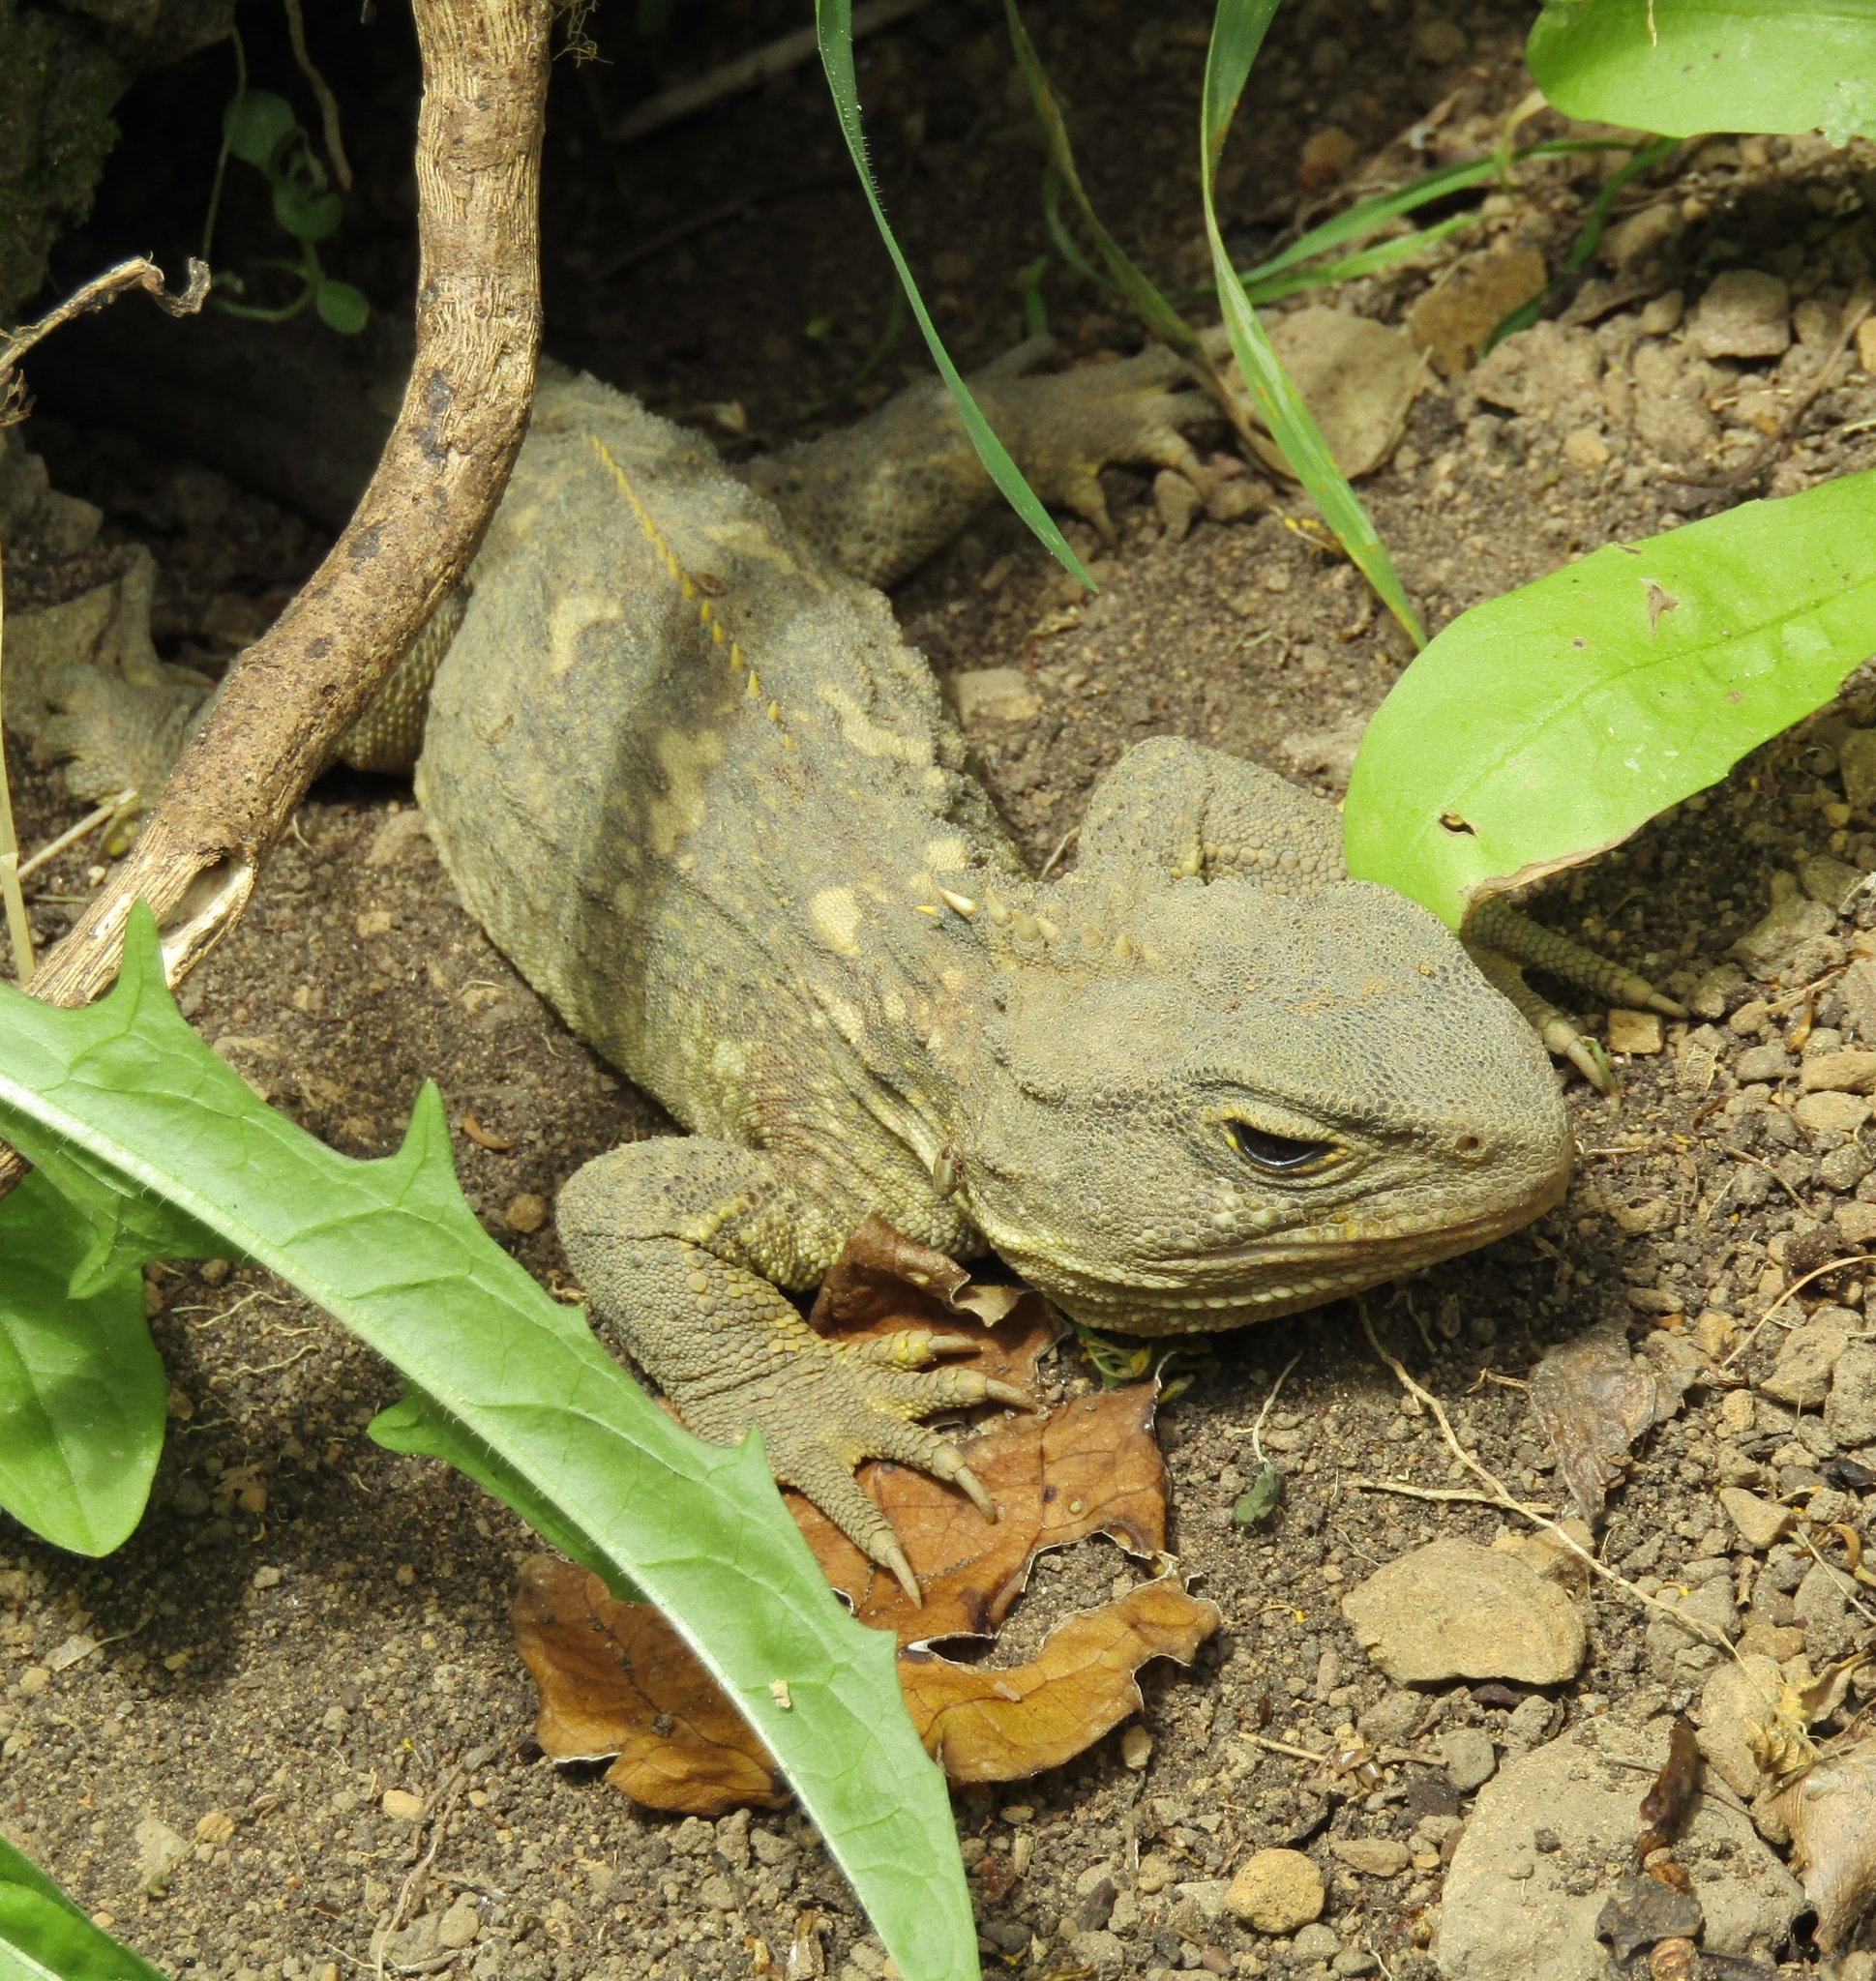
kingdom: Animalia
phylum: Chordata
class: Sphenodontia
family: Sphenodontidae
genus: Sphenodon
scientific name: Sphenodon punctatus
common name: Tuatara
